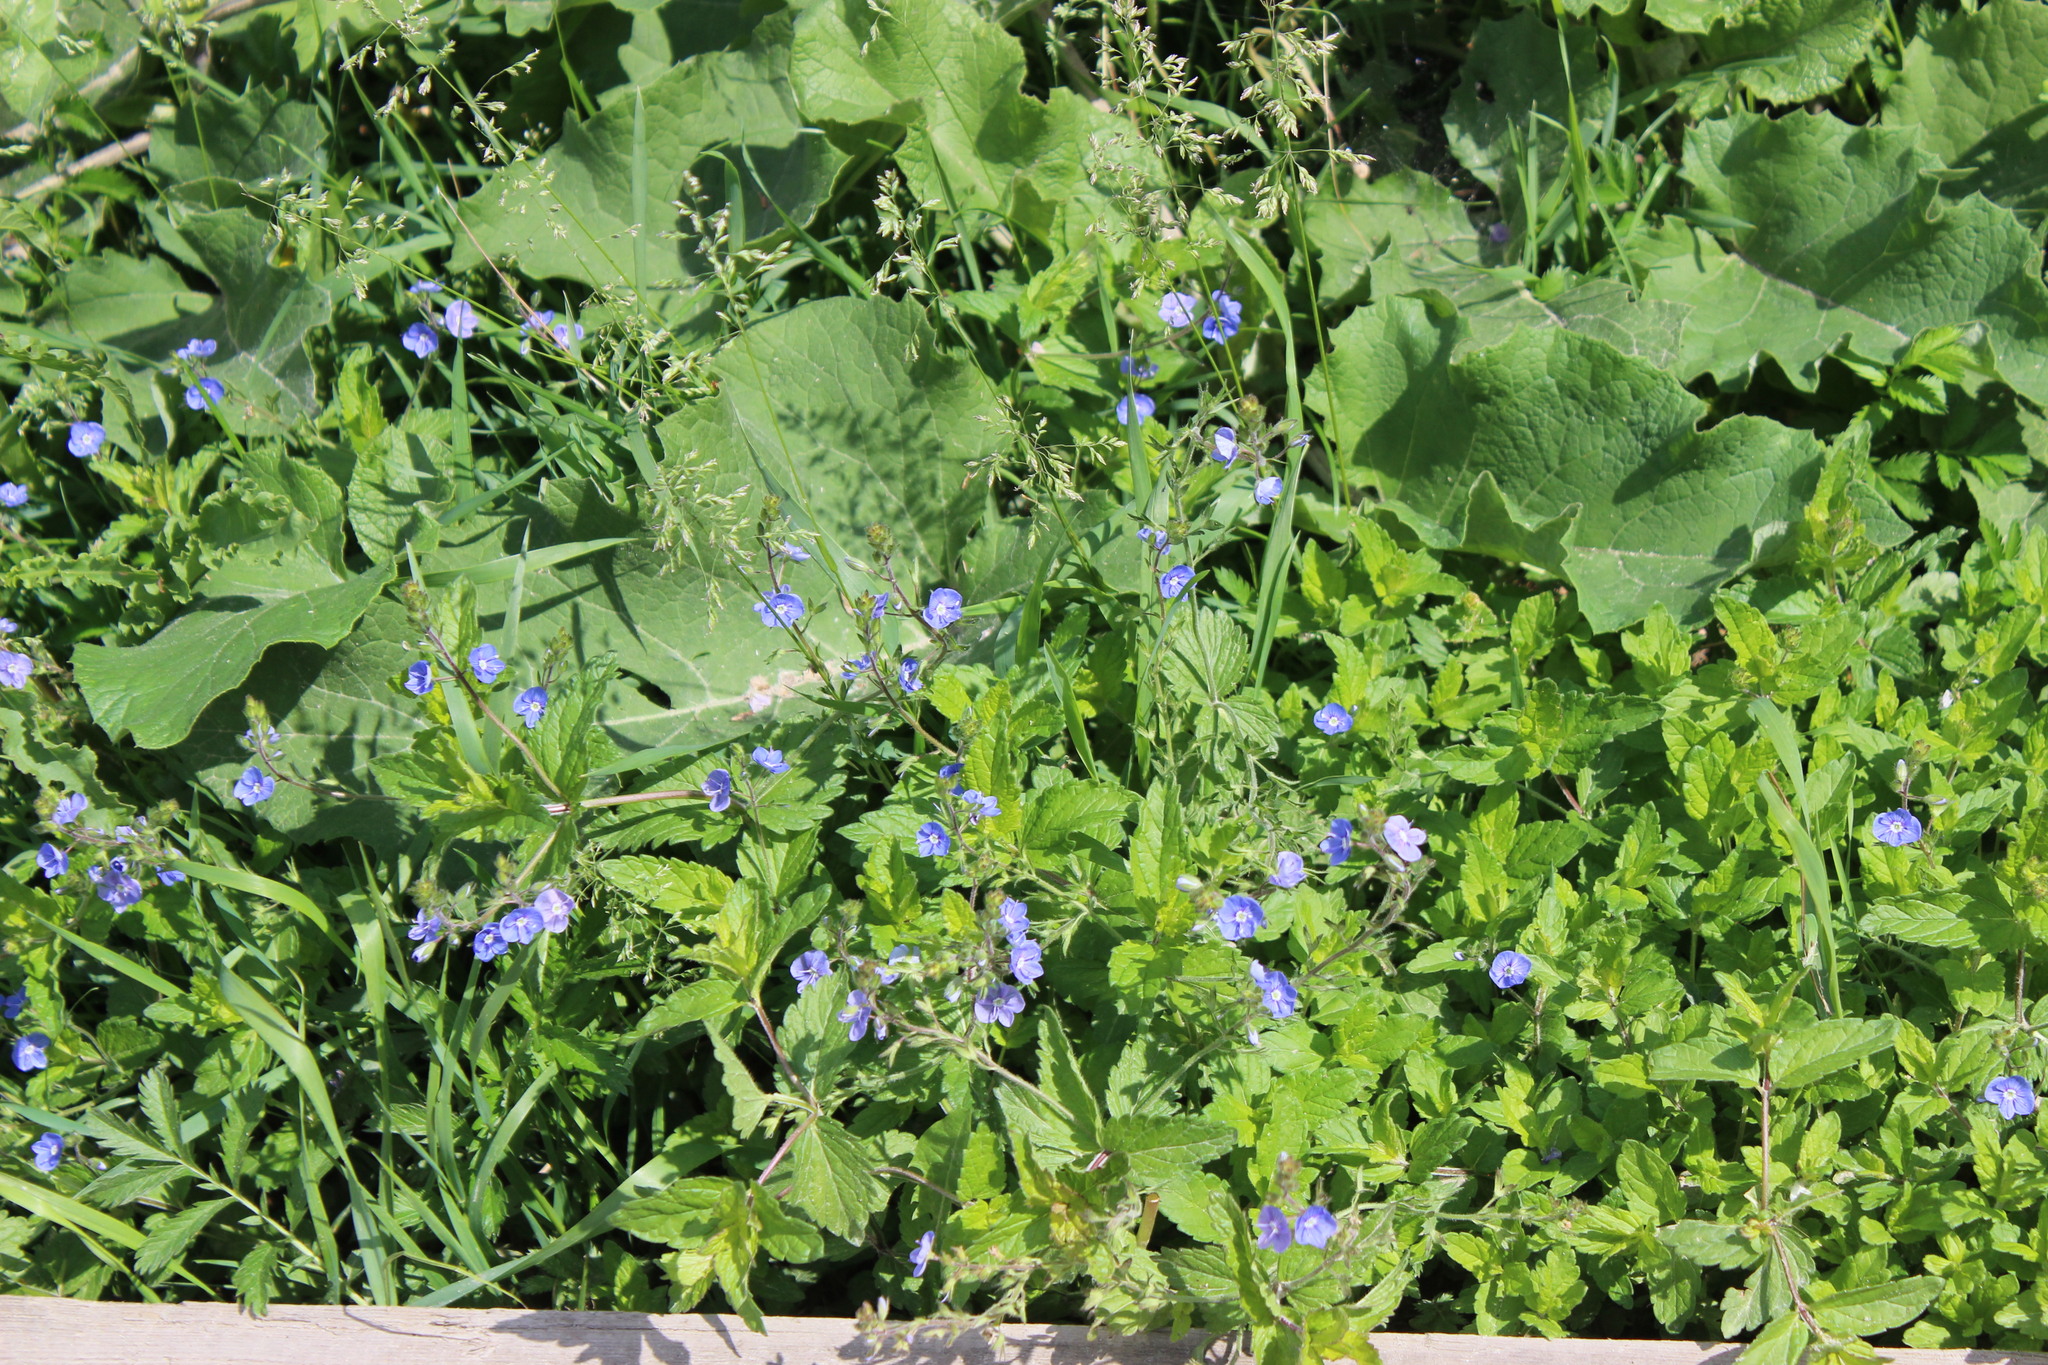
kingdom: Plantae
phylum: Tracheophyta
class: Magnoliopsida
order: Lamiales
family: Plantaginaceae
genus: Veronica
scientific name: Veronica chamaedrys
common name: Germander speedwell
